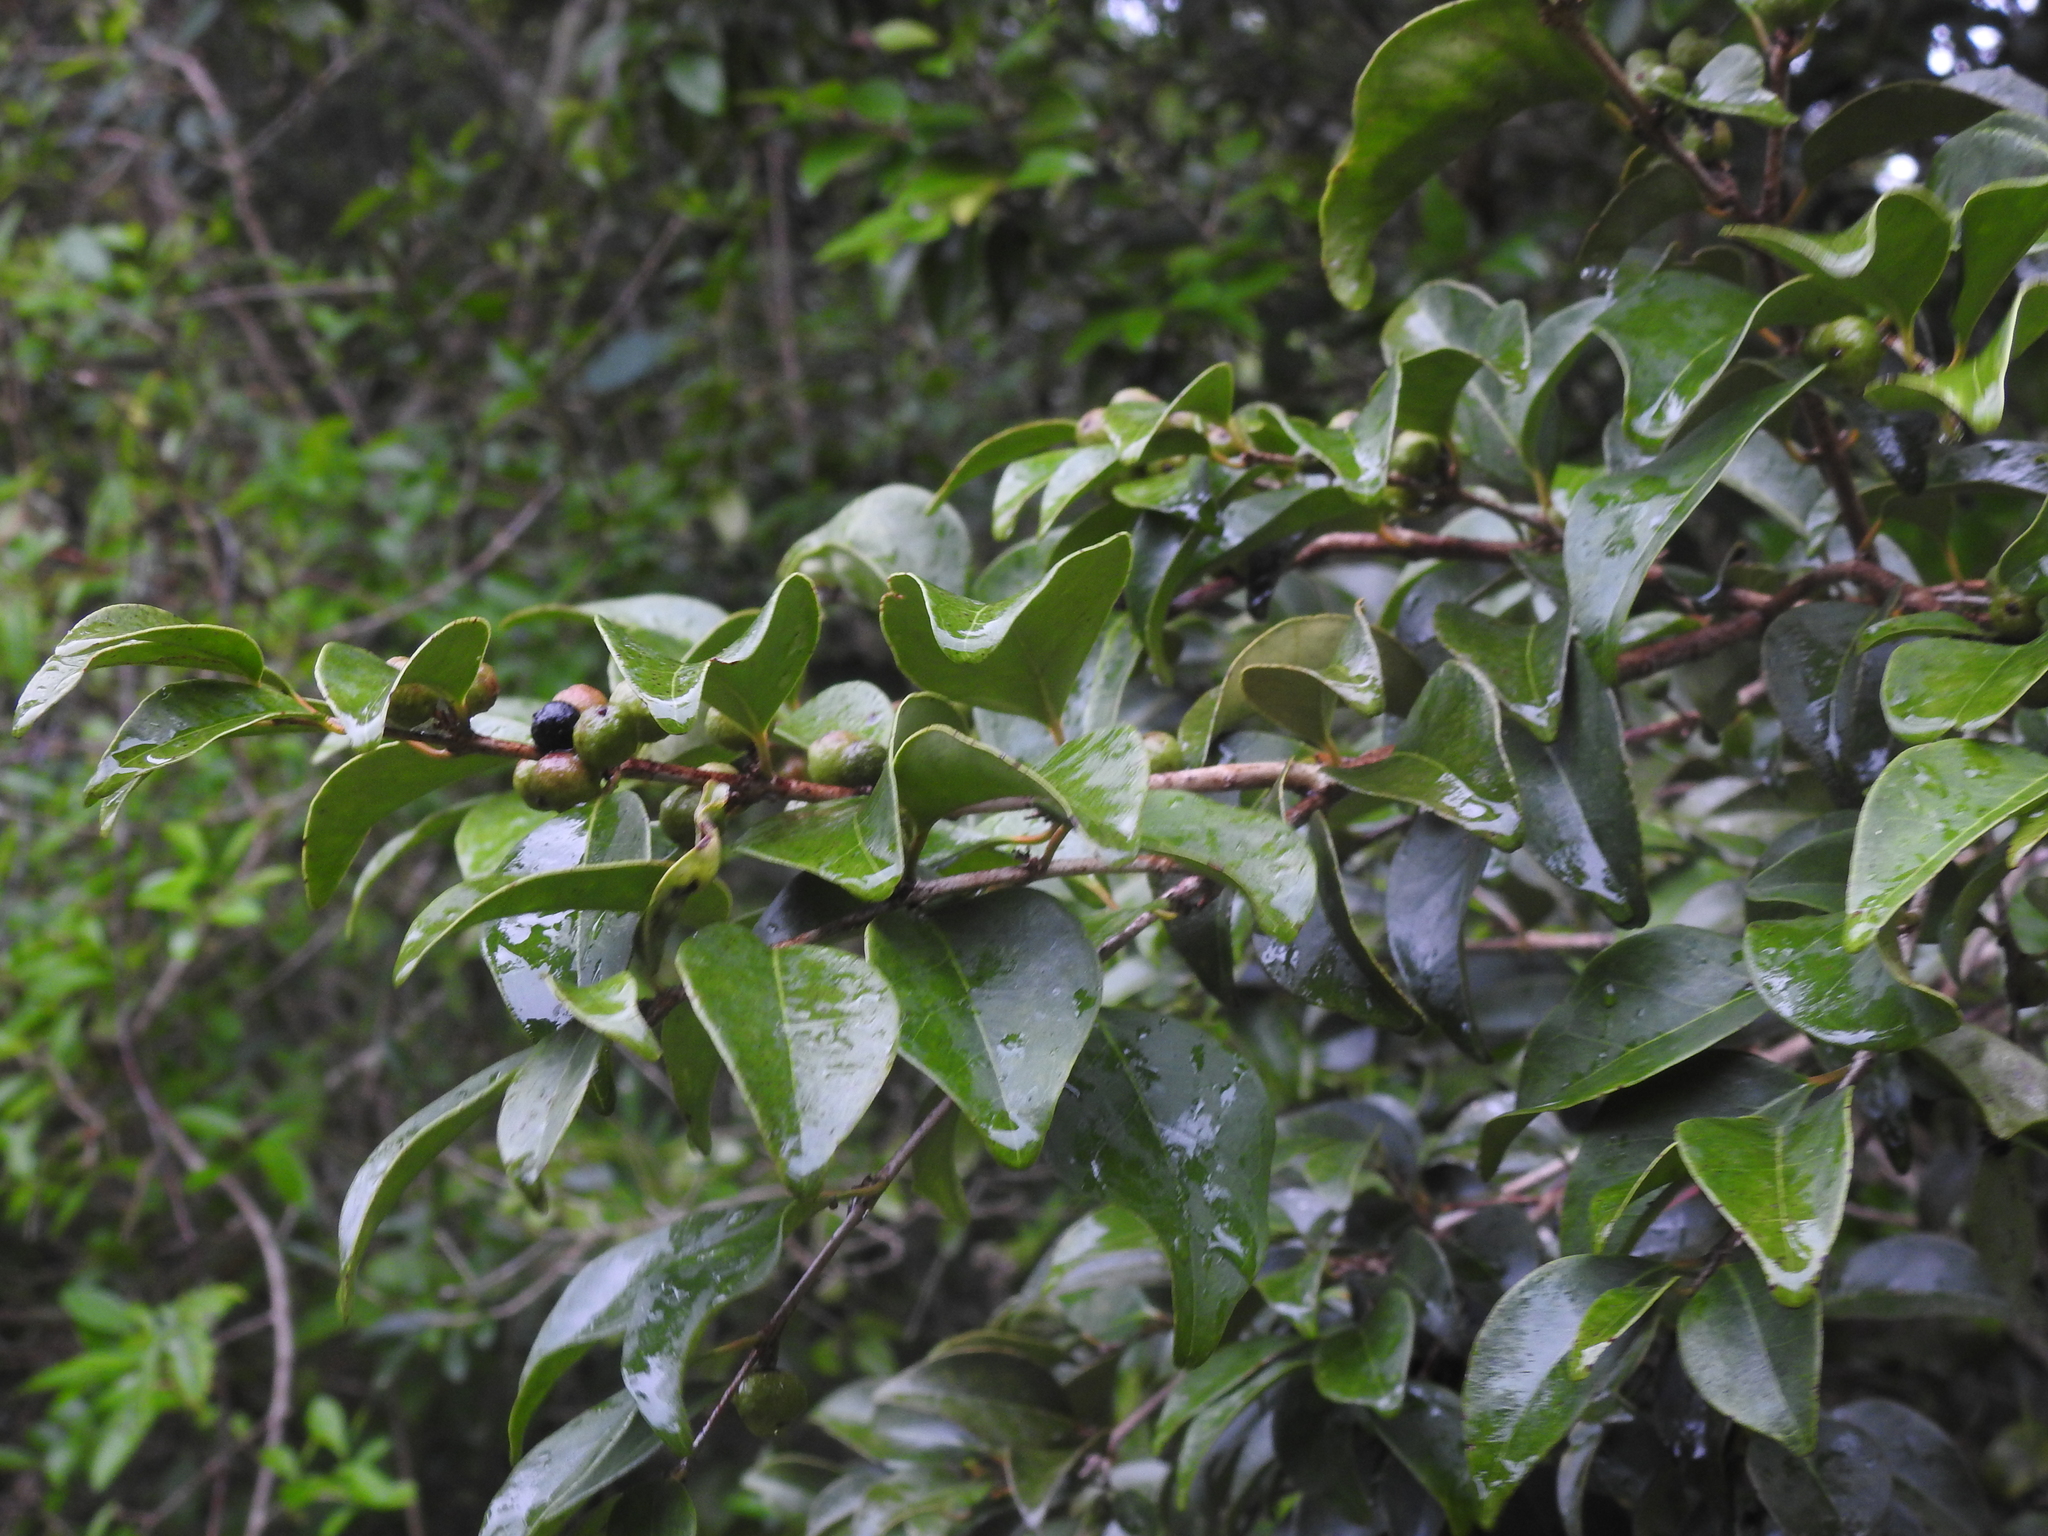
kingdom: Plantae
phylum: Tracheophyta
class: Magnoliopsida
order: Myrtales
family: Myrtaceae
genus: Eugenia
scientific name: Eugenia axillaris
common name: Choaky berry
